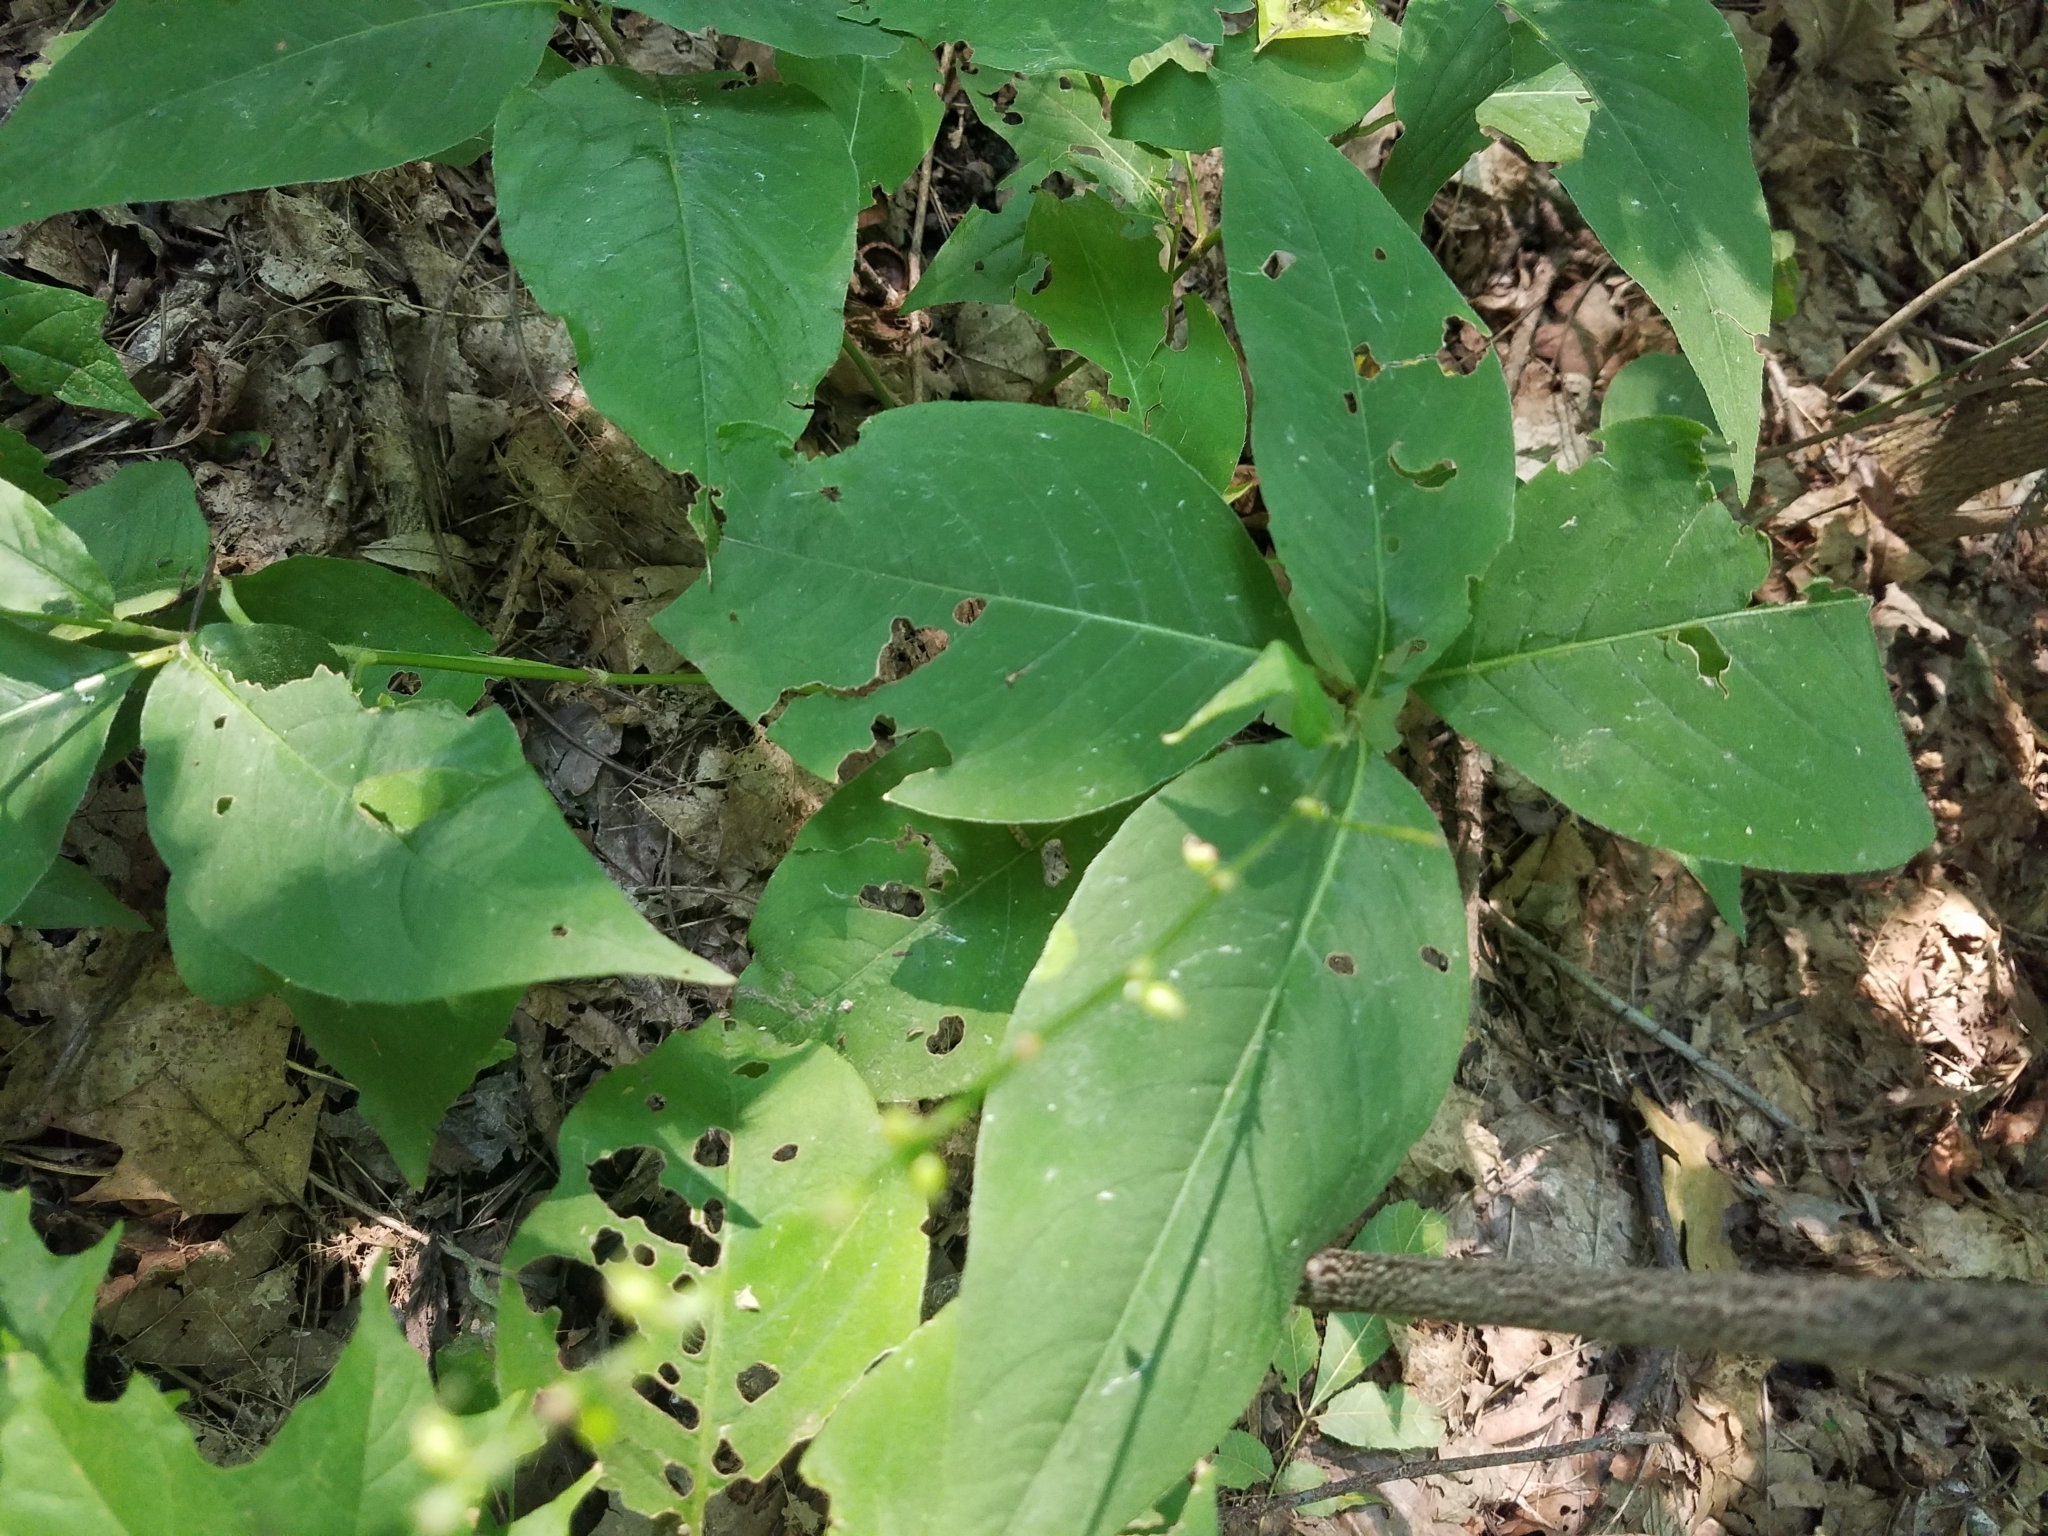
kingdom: Plantae
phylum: Tracheophyta
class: Magnoliopsida
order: Caryophyllales
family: Polygonaceae
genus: Persicaria
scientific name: Persicaria virginiana
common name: Jumpseed
